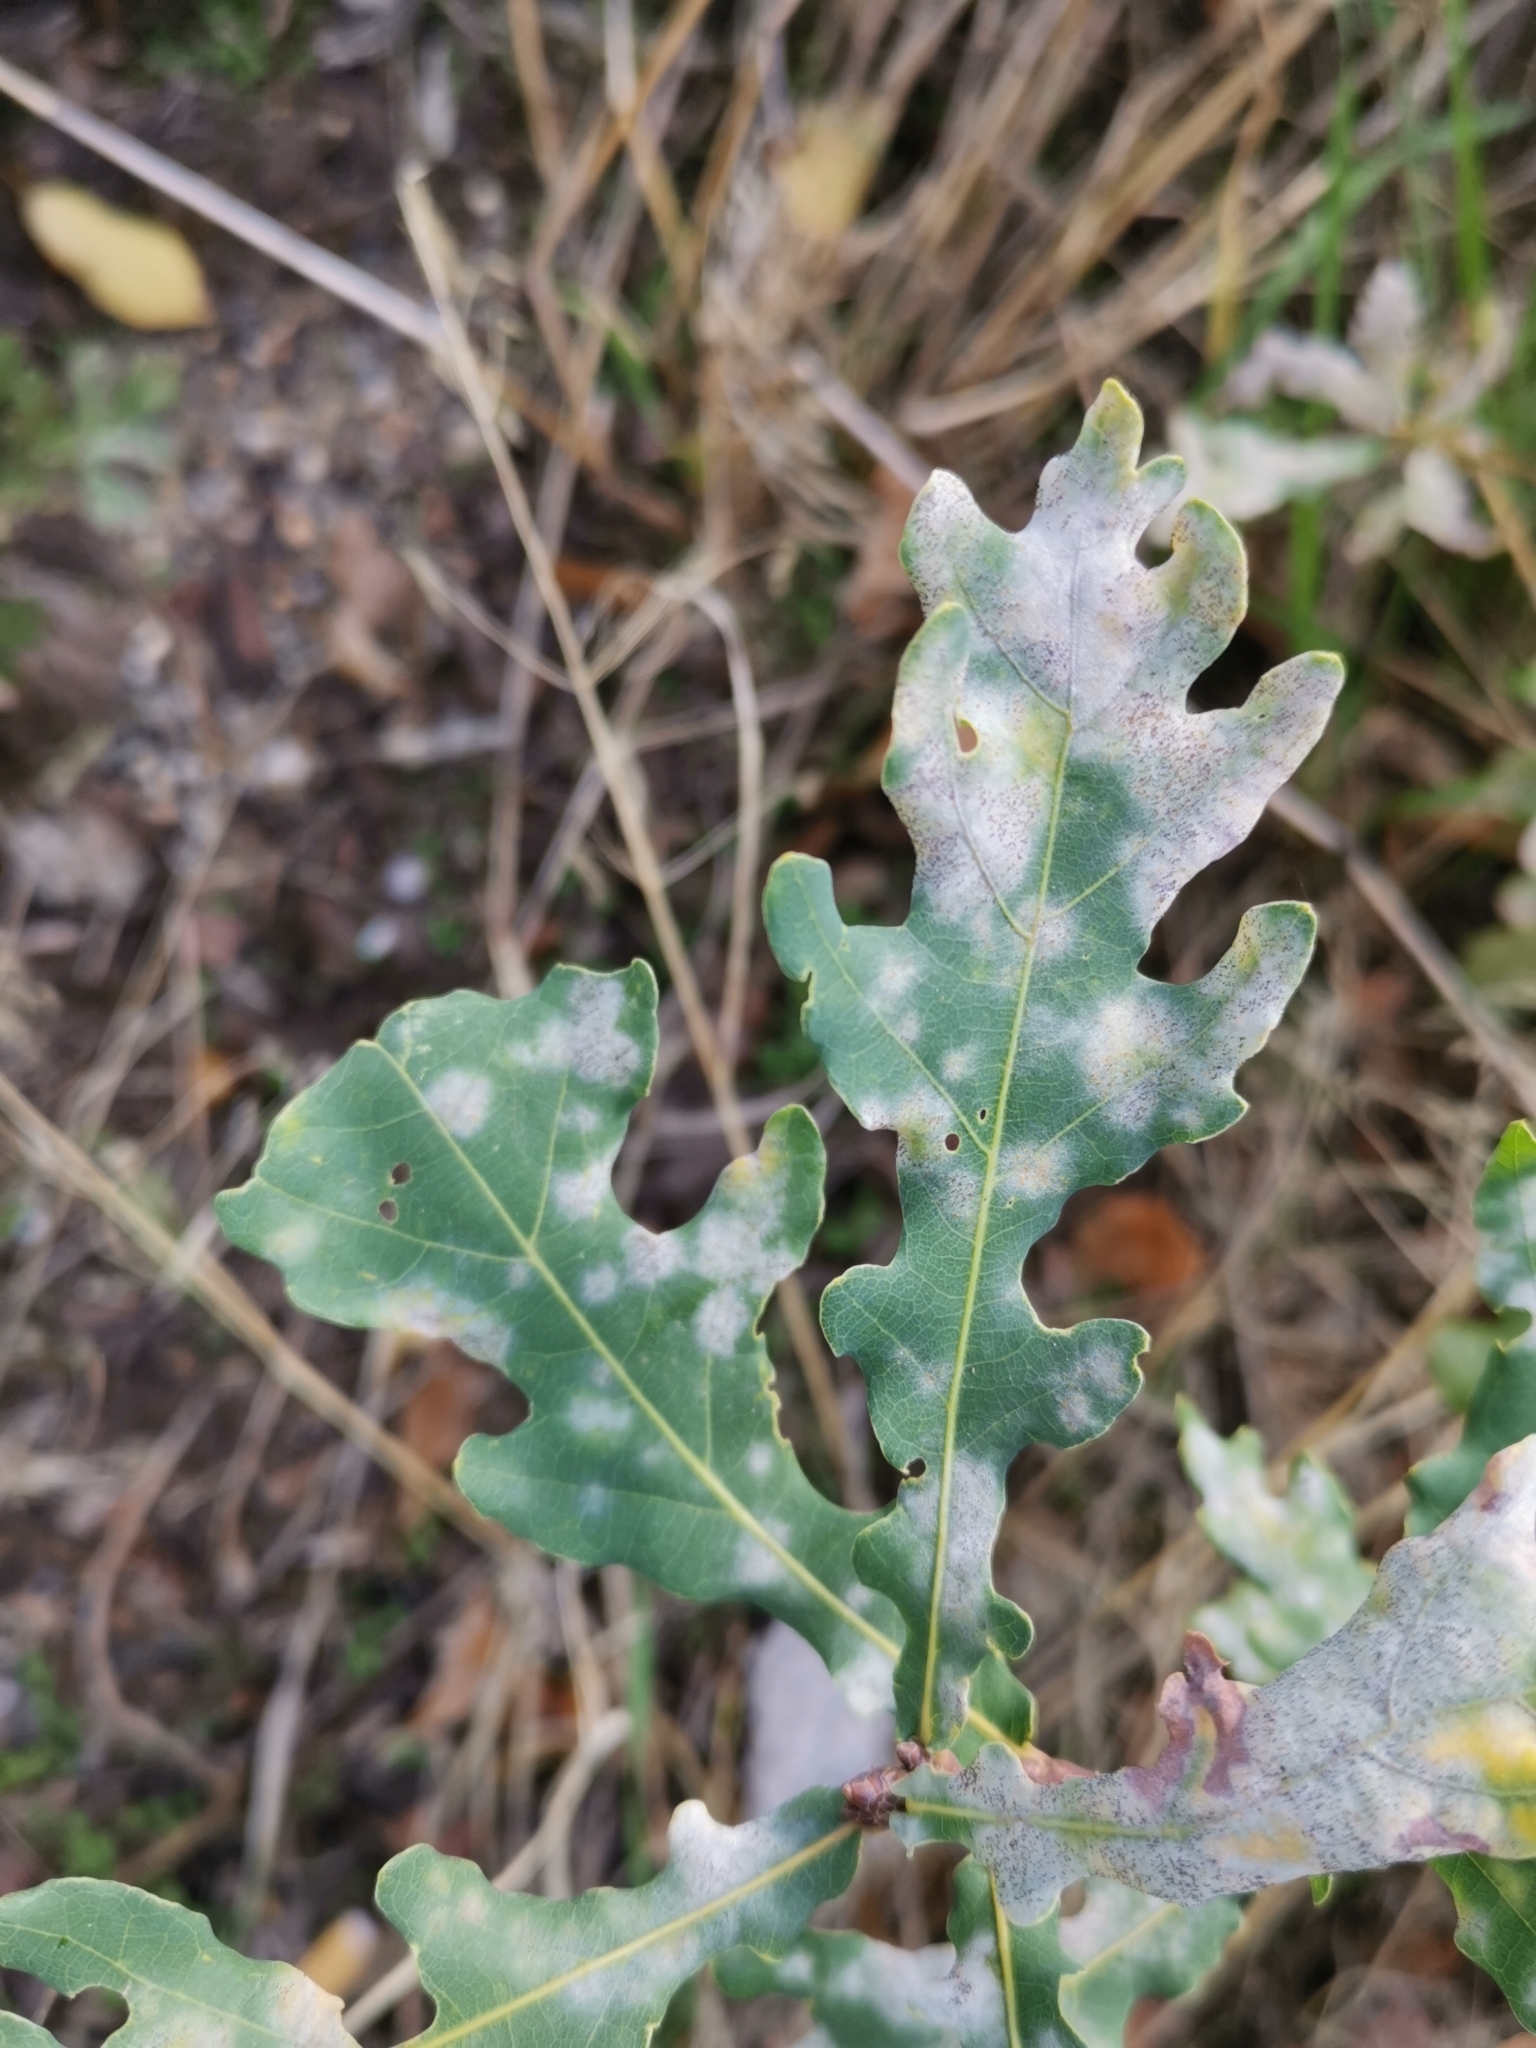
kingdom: Fungi
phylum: Ascomycota
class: Leotiomycetes
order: Helotiales
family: Erysiphaceae
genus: Erysiphe
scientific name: Erysiphe
